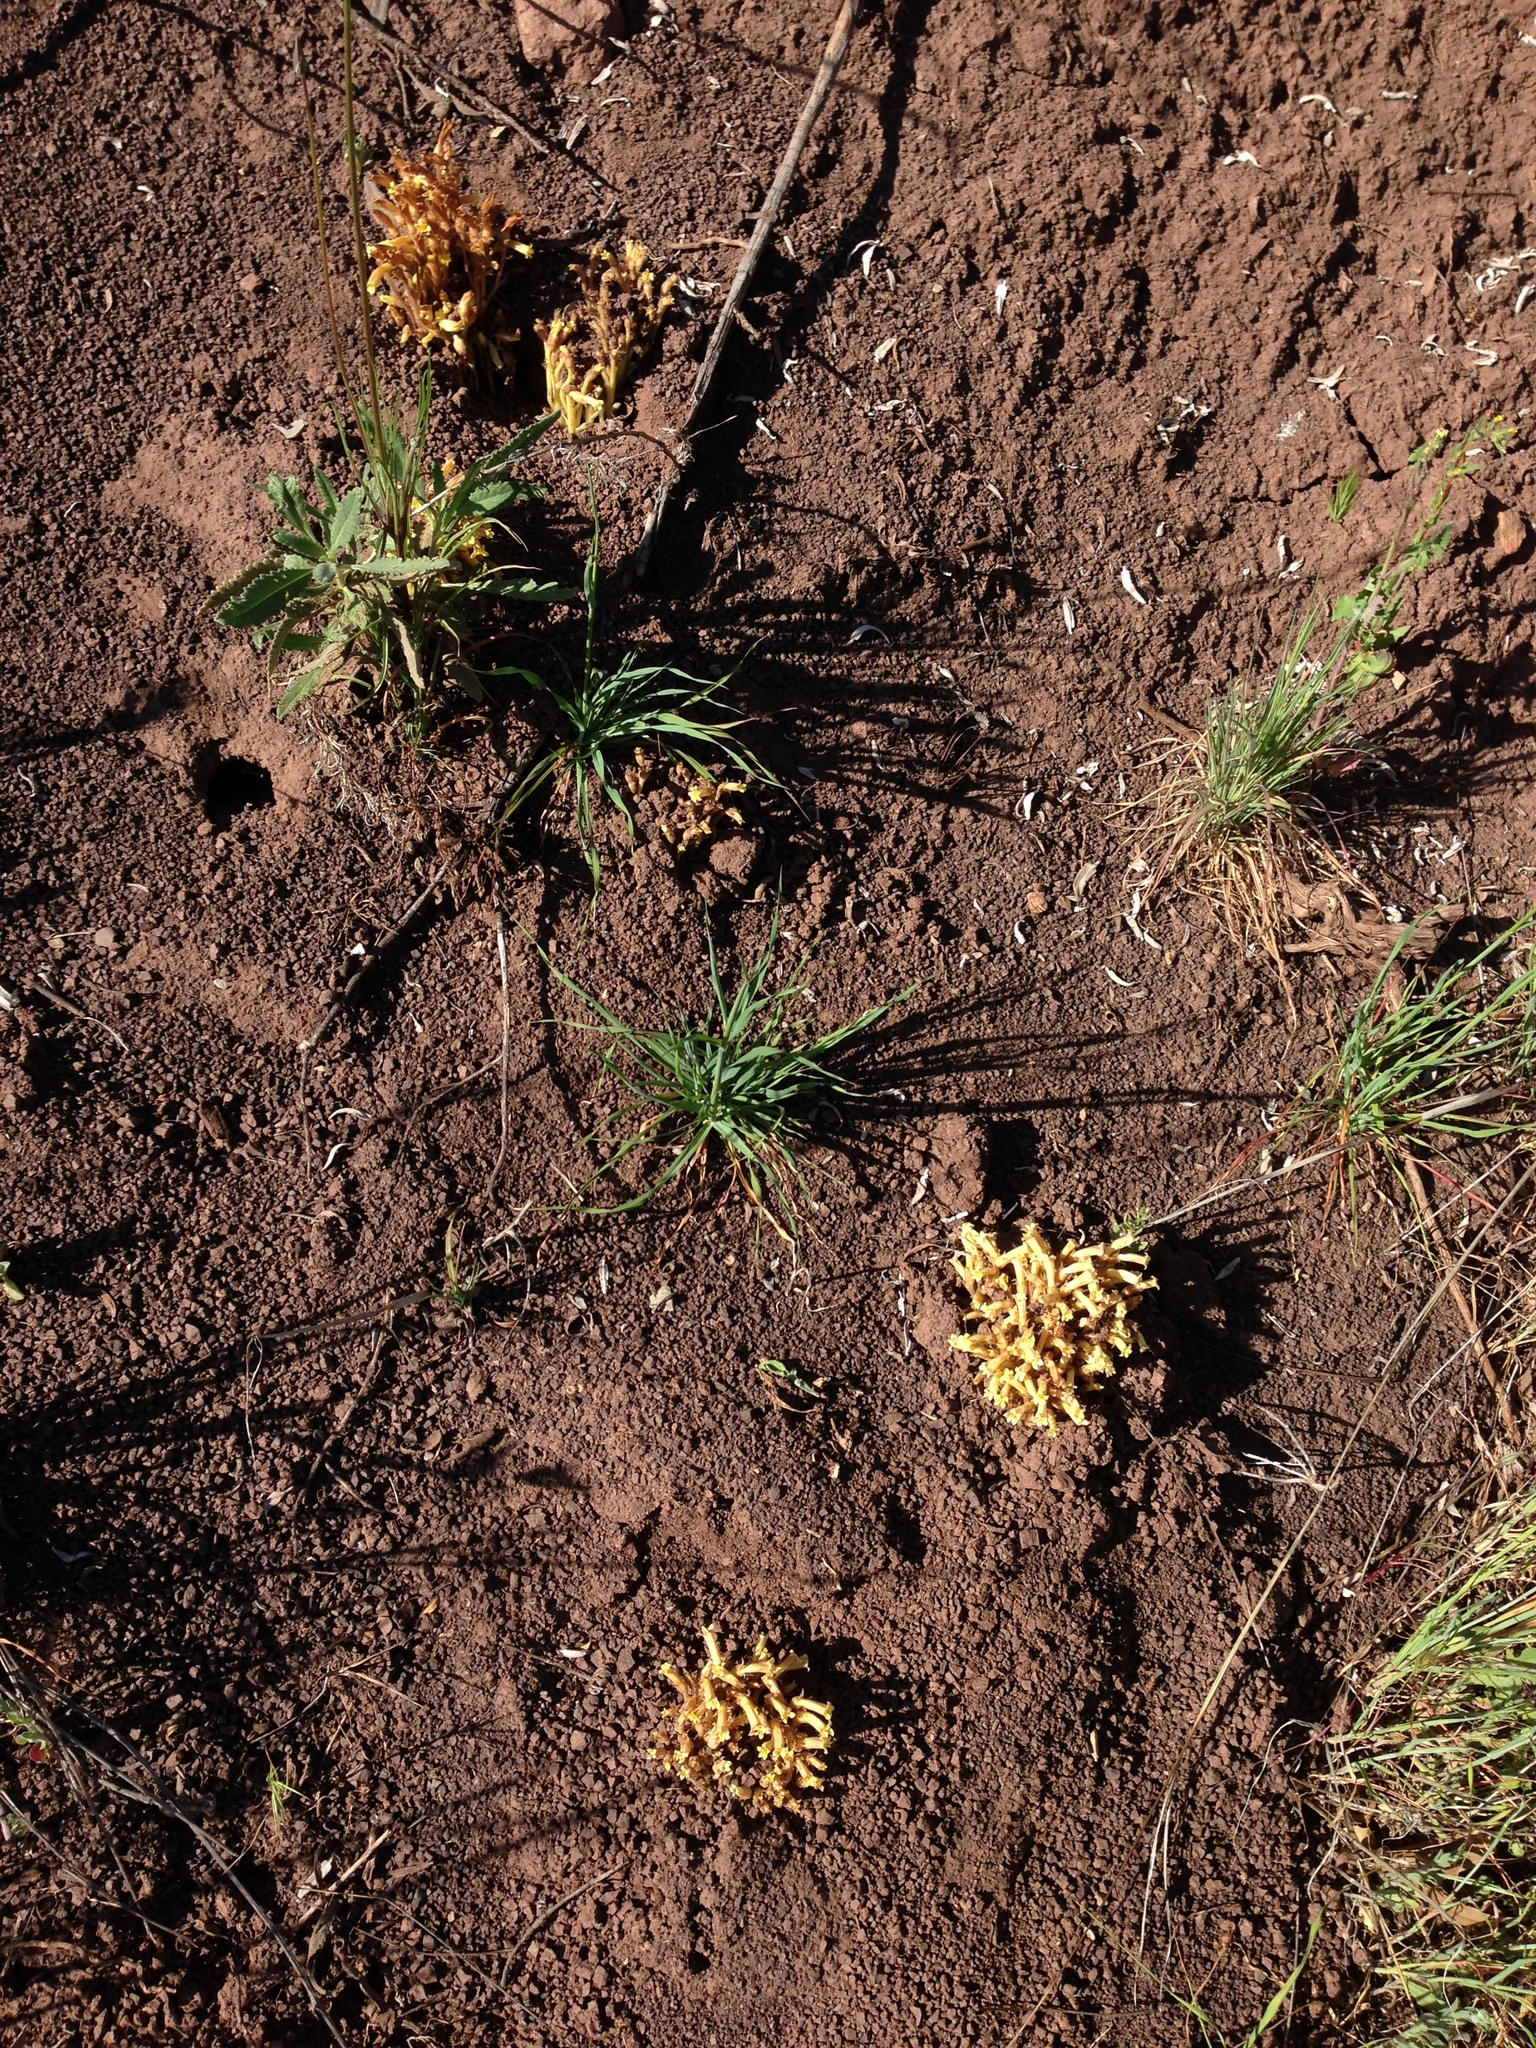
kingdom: Plantae
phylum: Tracheophyta
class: Magnoliopsida
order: Lamiales
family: Orobanchaceae
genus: Aphyllon
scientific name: Aphyllon franciscanum
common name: San francisco broomrape
